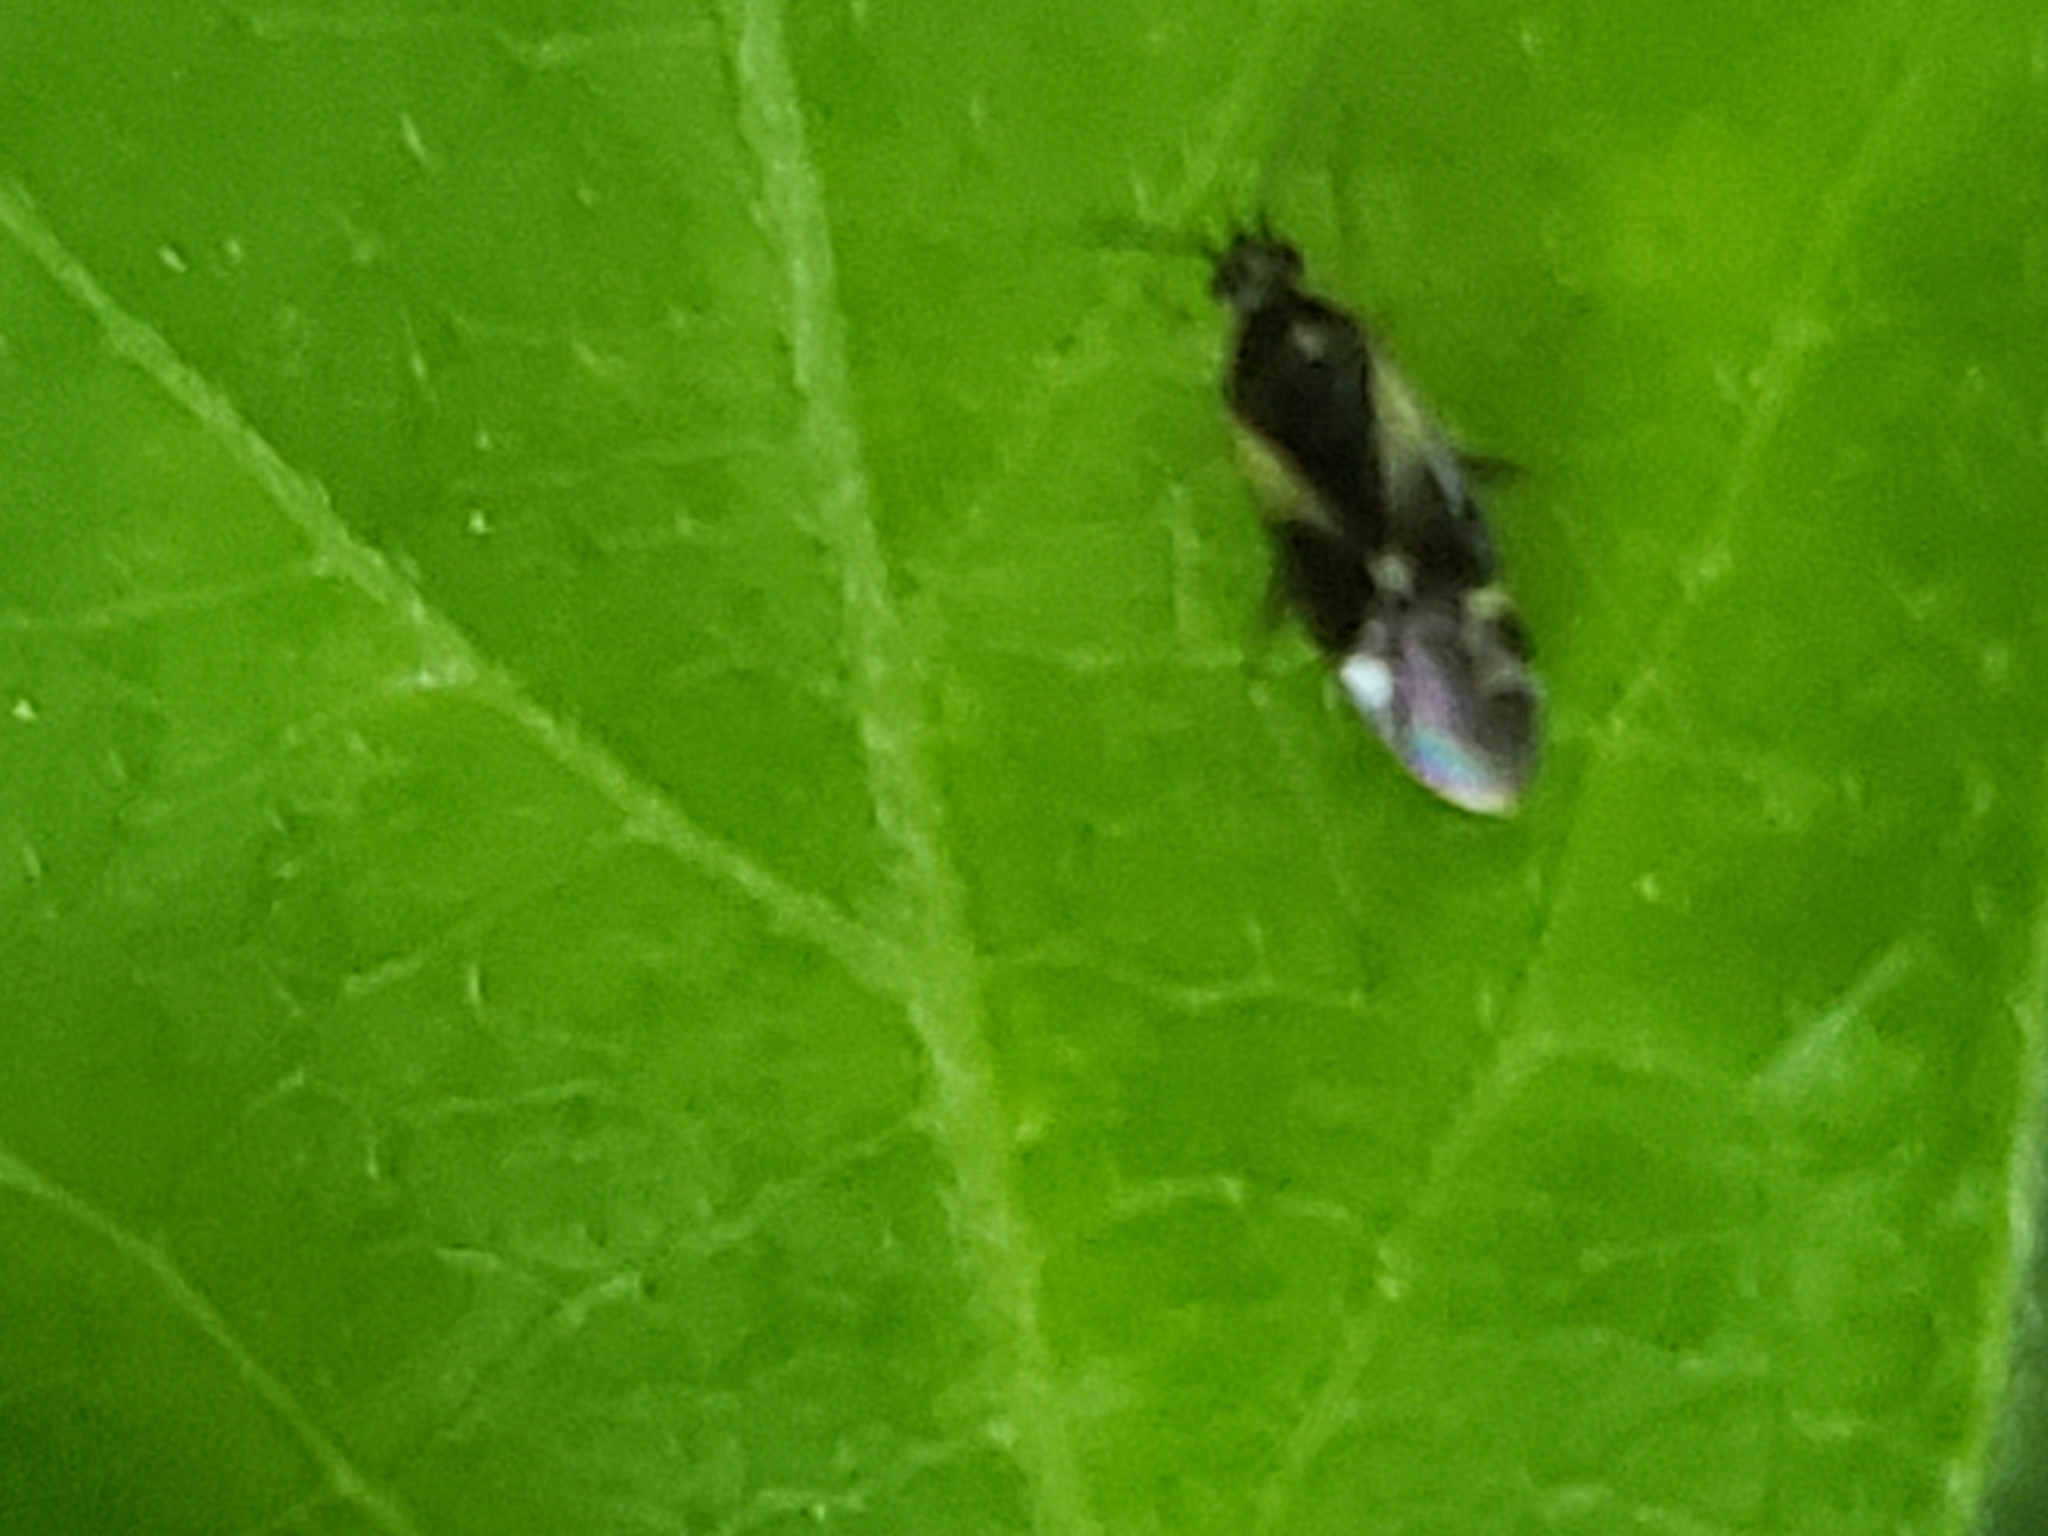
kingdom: Animalia
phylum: Arthropoda
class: Insecta
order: Hemiptera
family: Miridae
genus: Plagiognathus
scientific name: Plagiognathus obscurus
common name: Obscure plant bug
